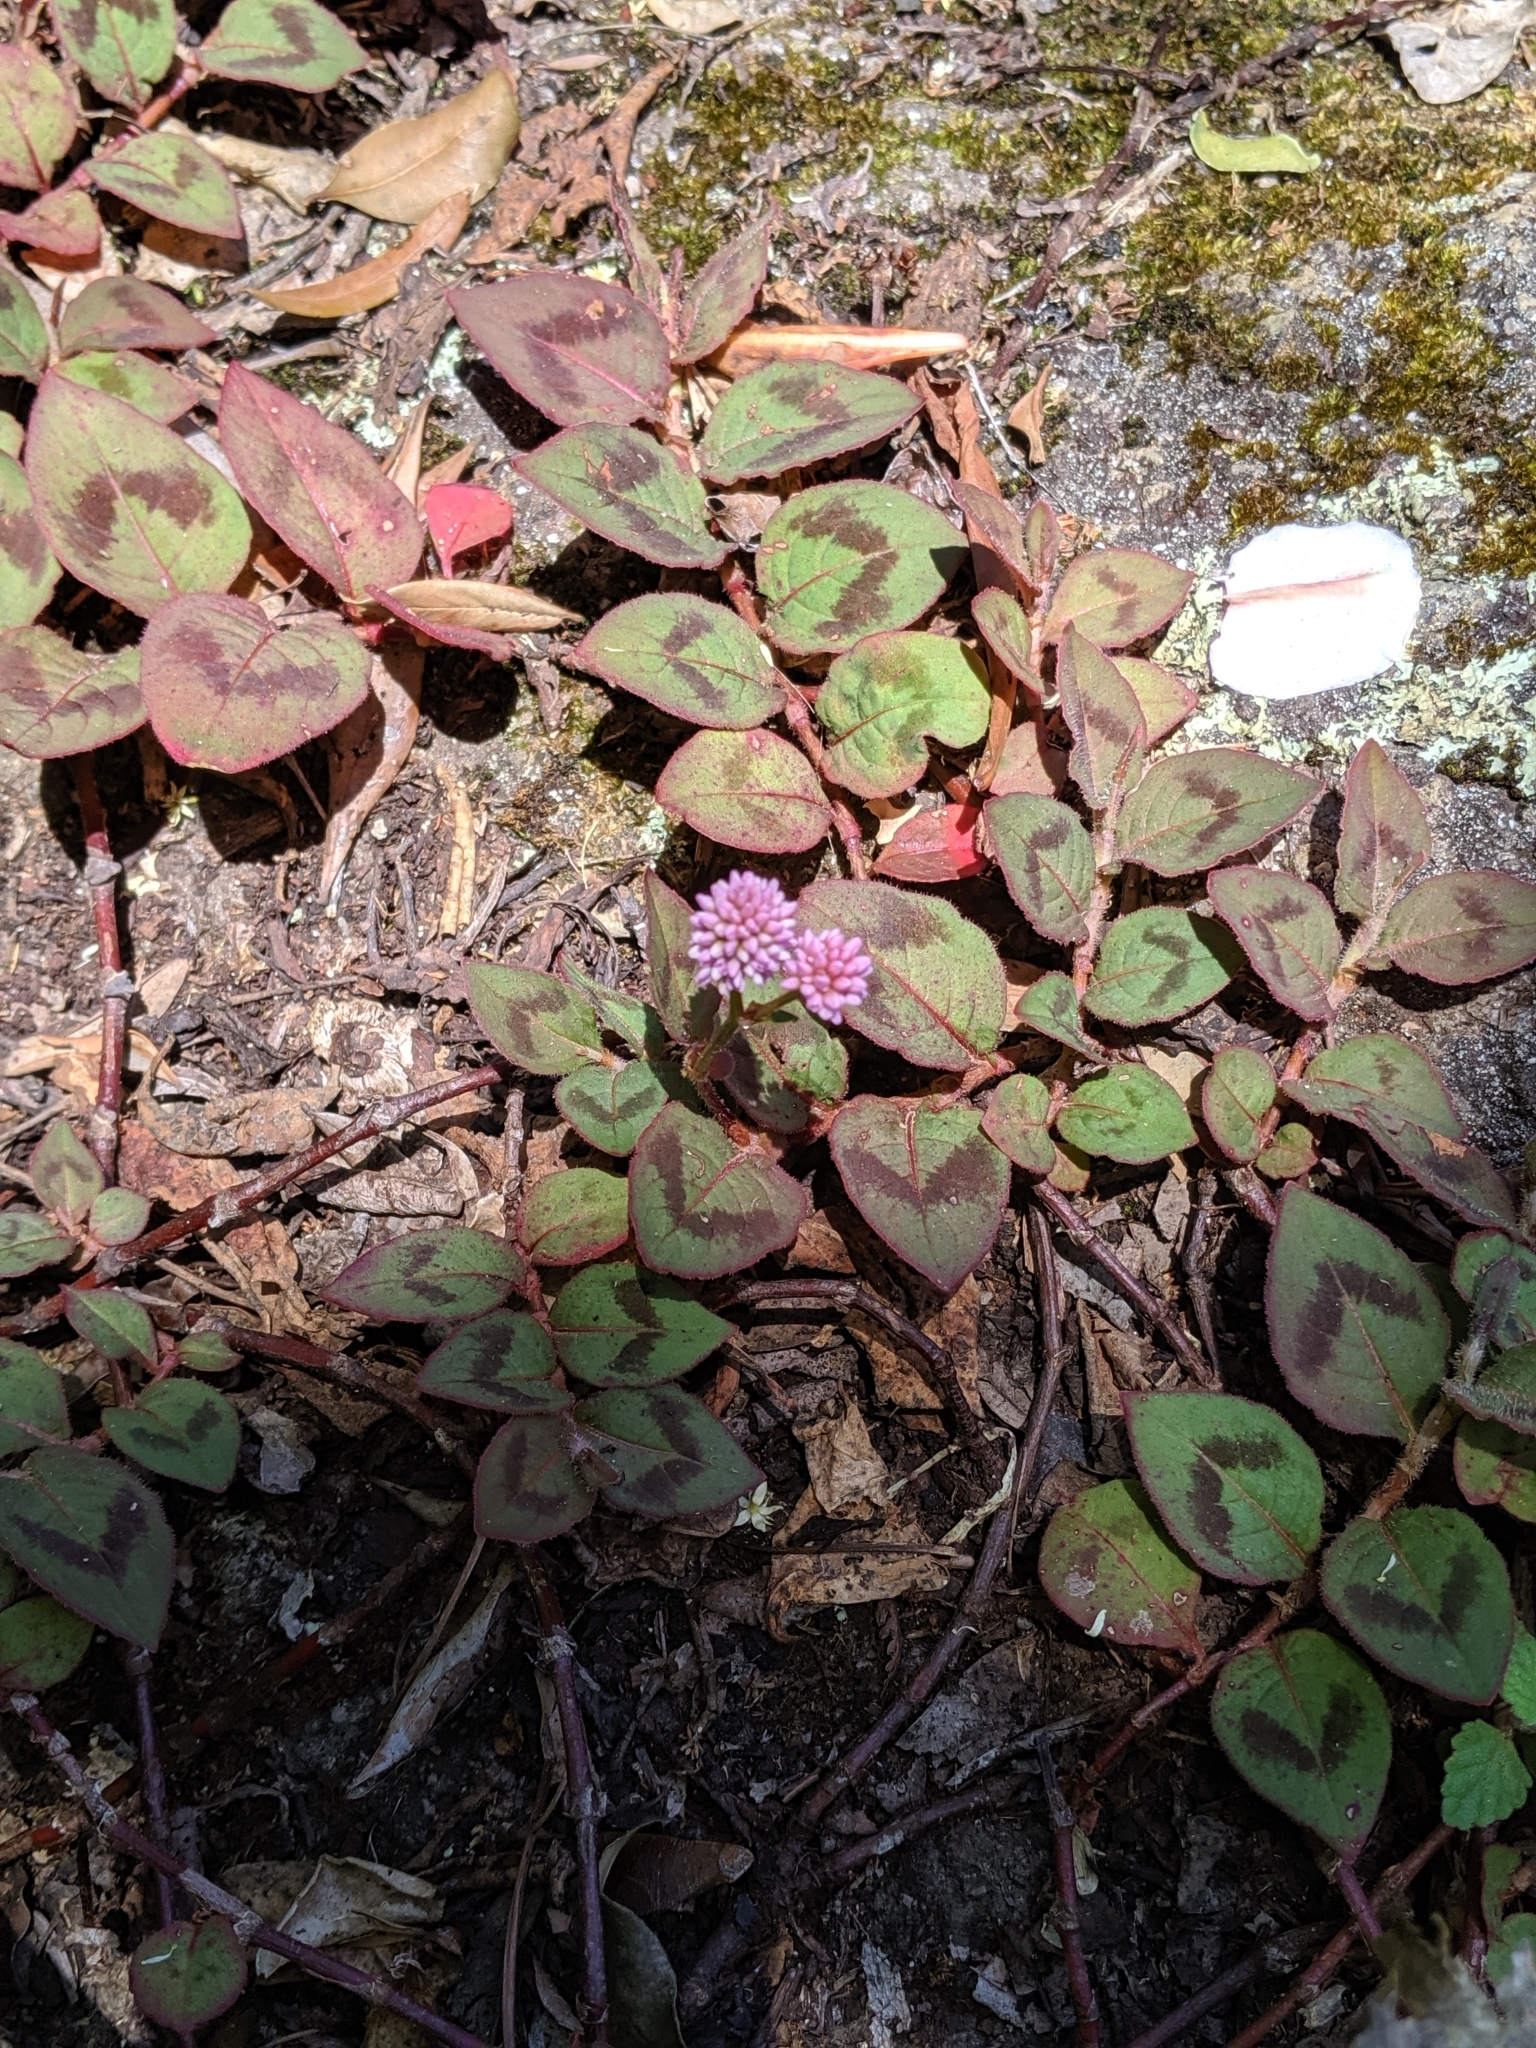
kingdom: Plantae
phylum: Tracheophyta
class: Magnoliopsida
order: Caryophyllales
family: Polygonaceae
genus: Persicaria
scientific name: Persicaria capitata
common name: Pinkhead smartweed
